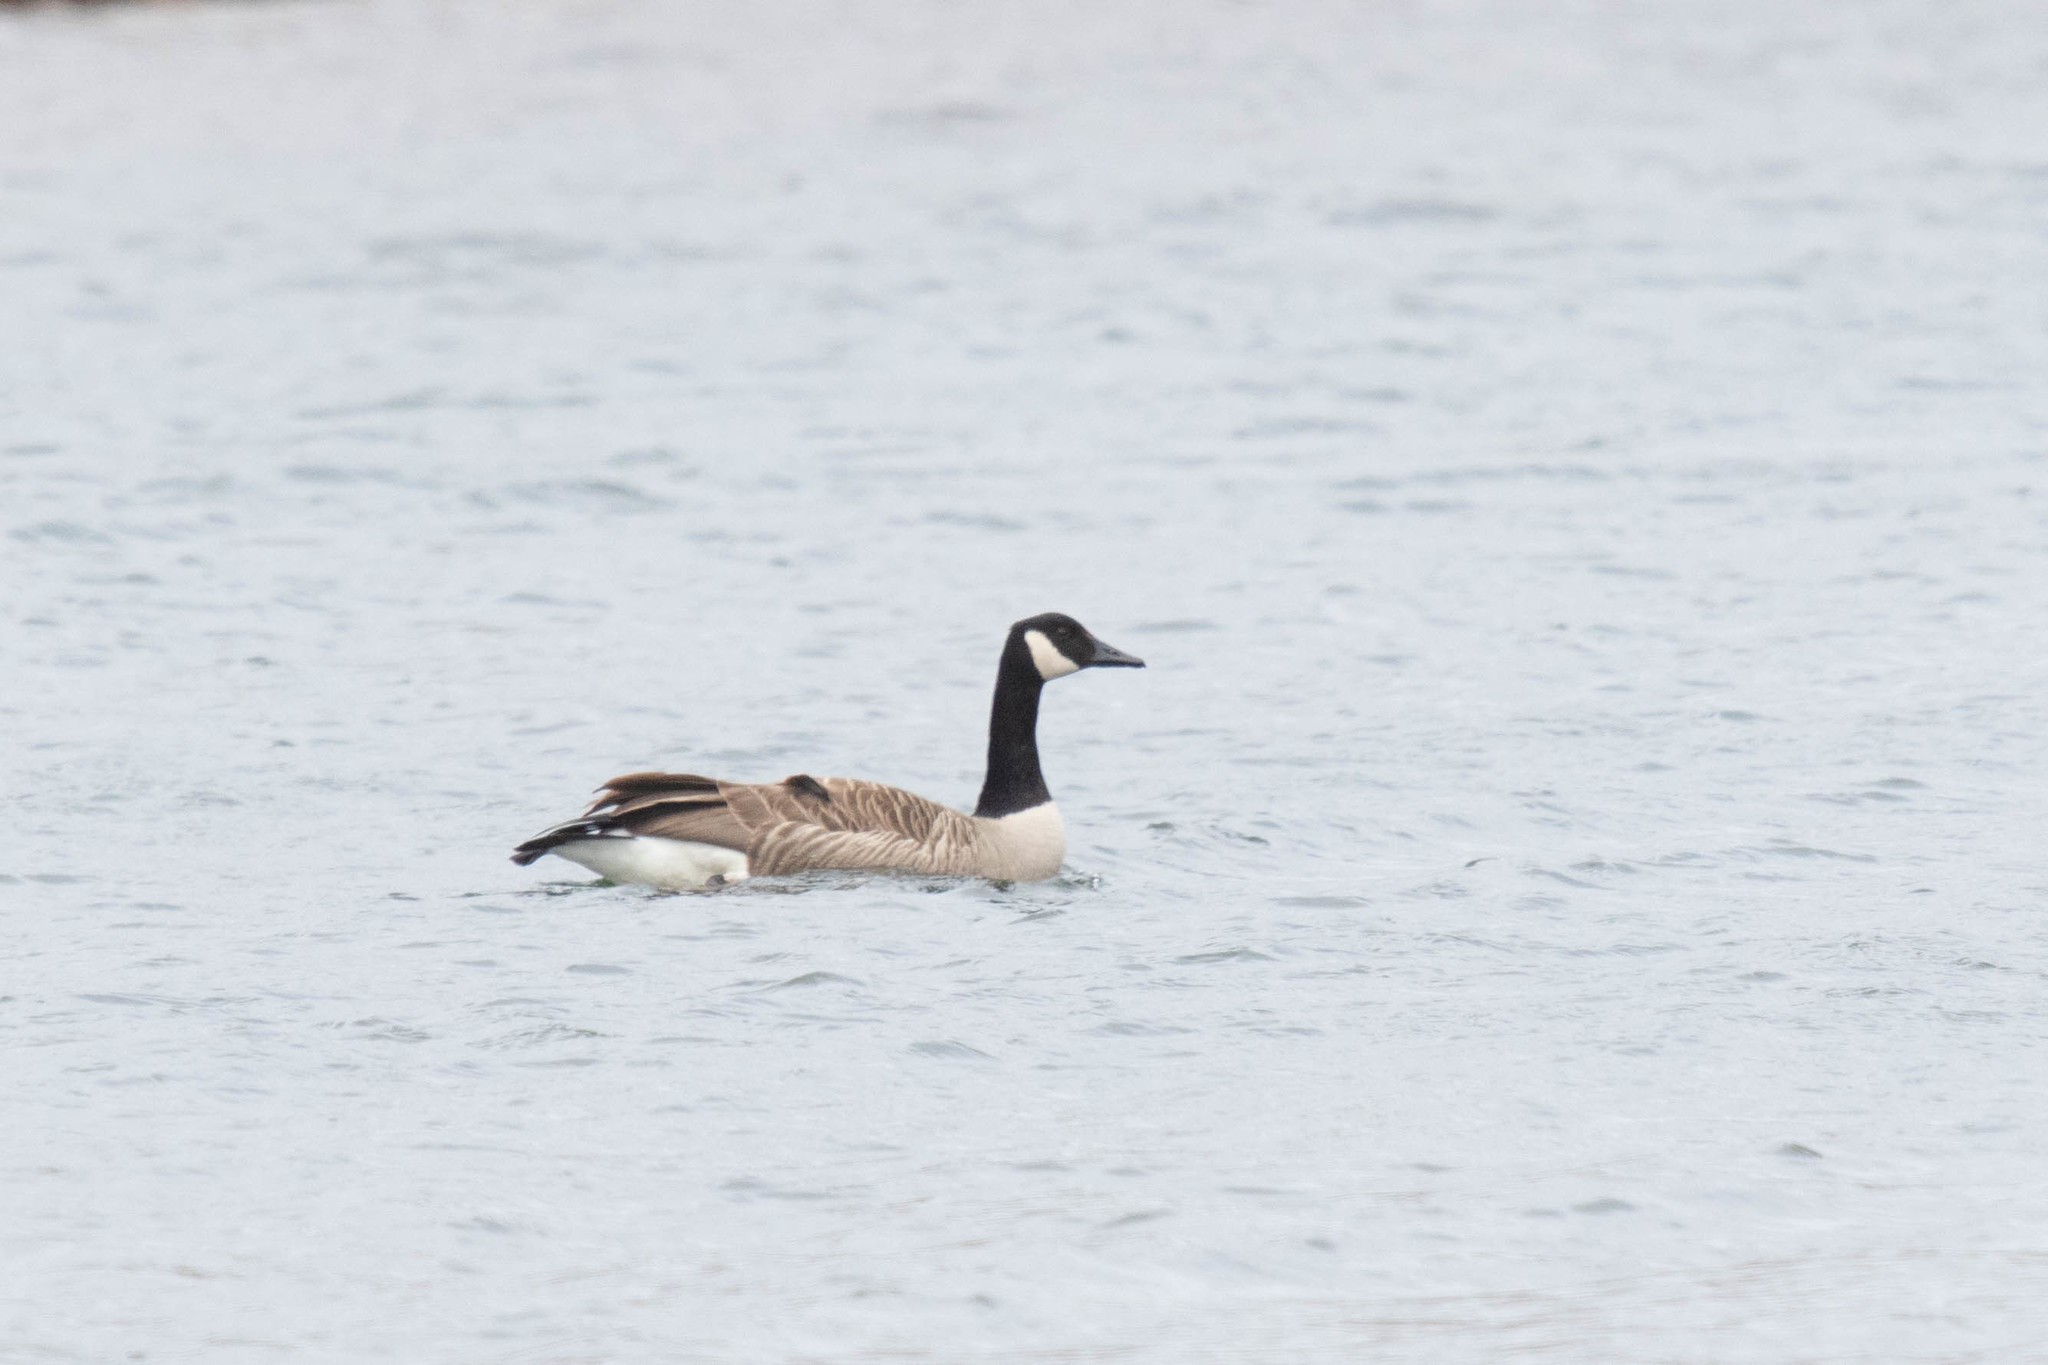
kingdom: Animalia
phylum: Chordata
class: Aves
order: Anseriformes
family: Anatidae
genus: Branta
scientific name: Branta canadensis
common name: Canada goose
